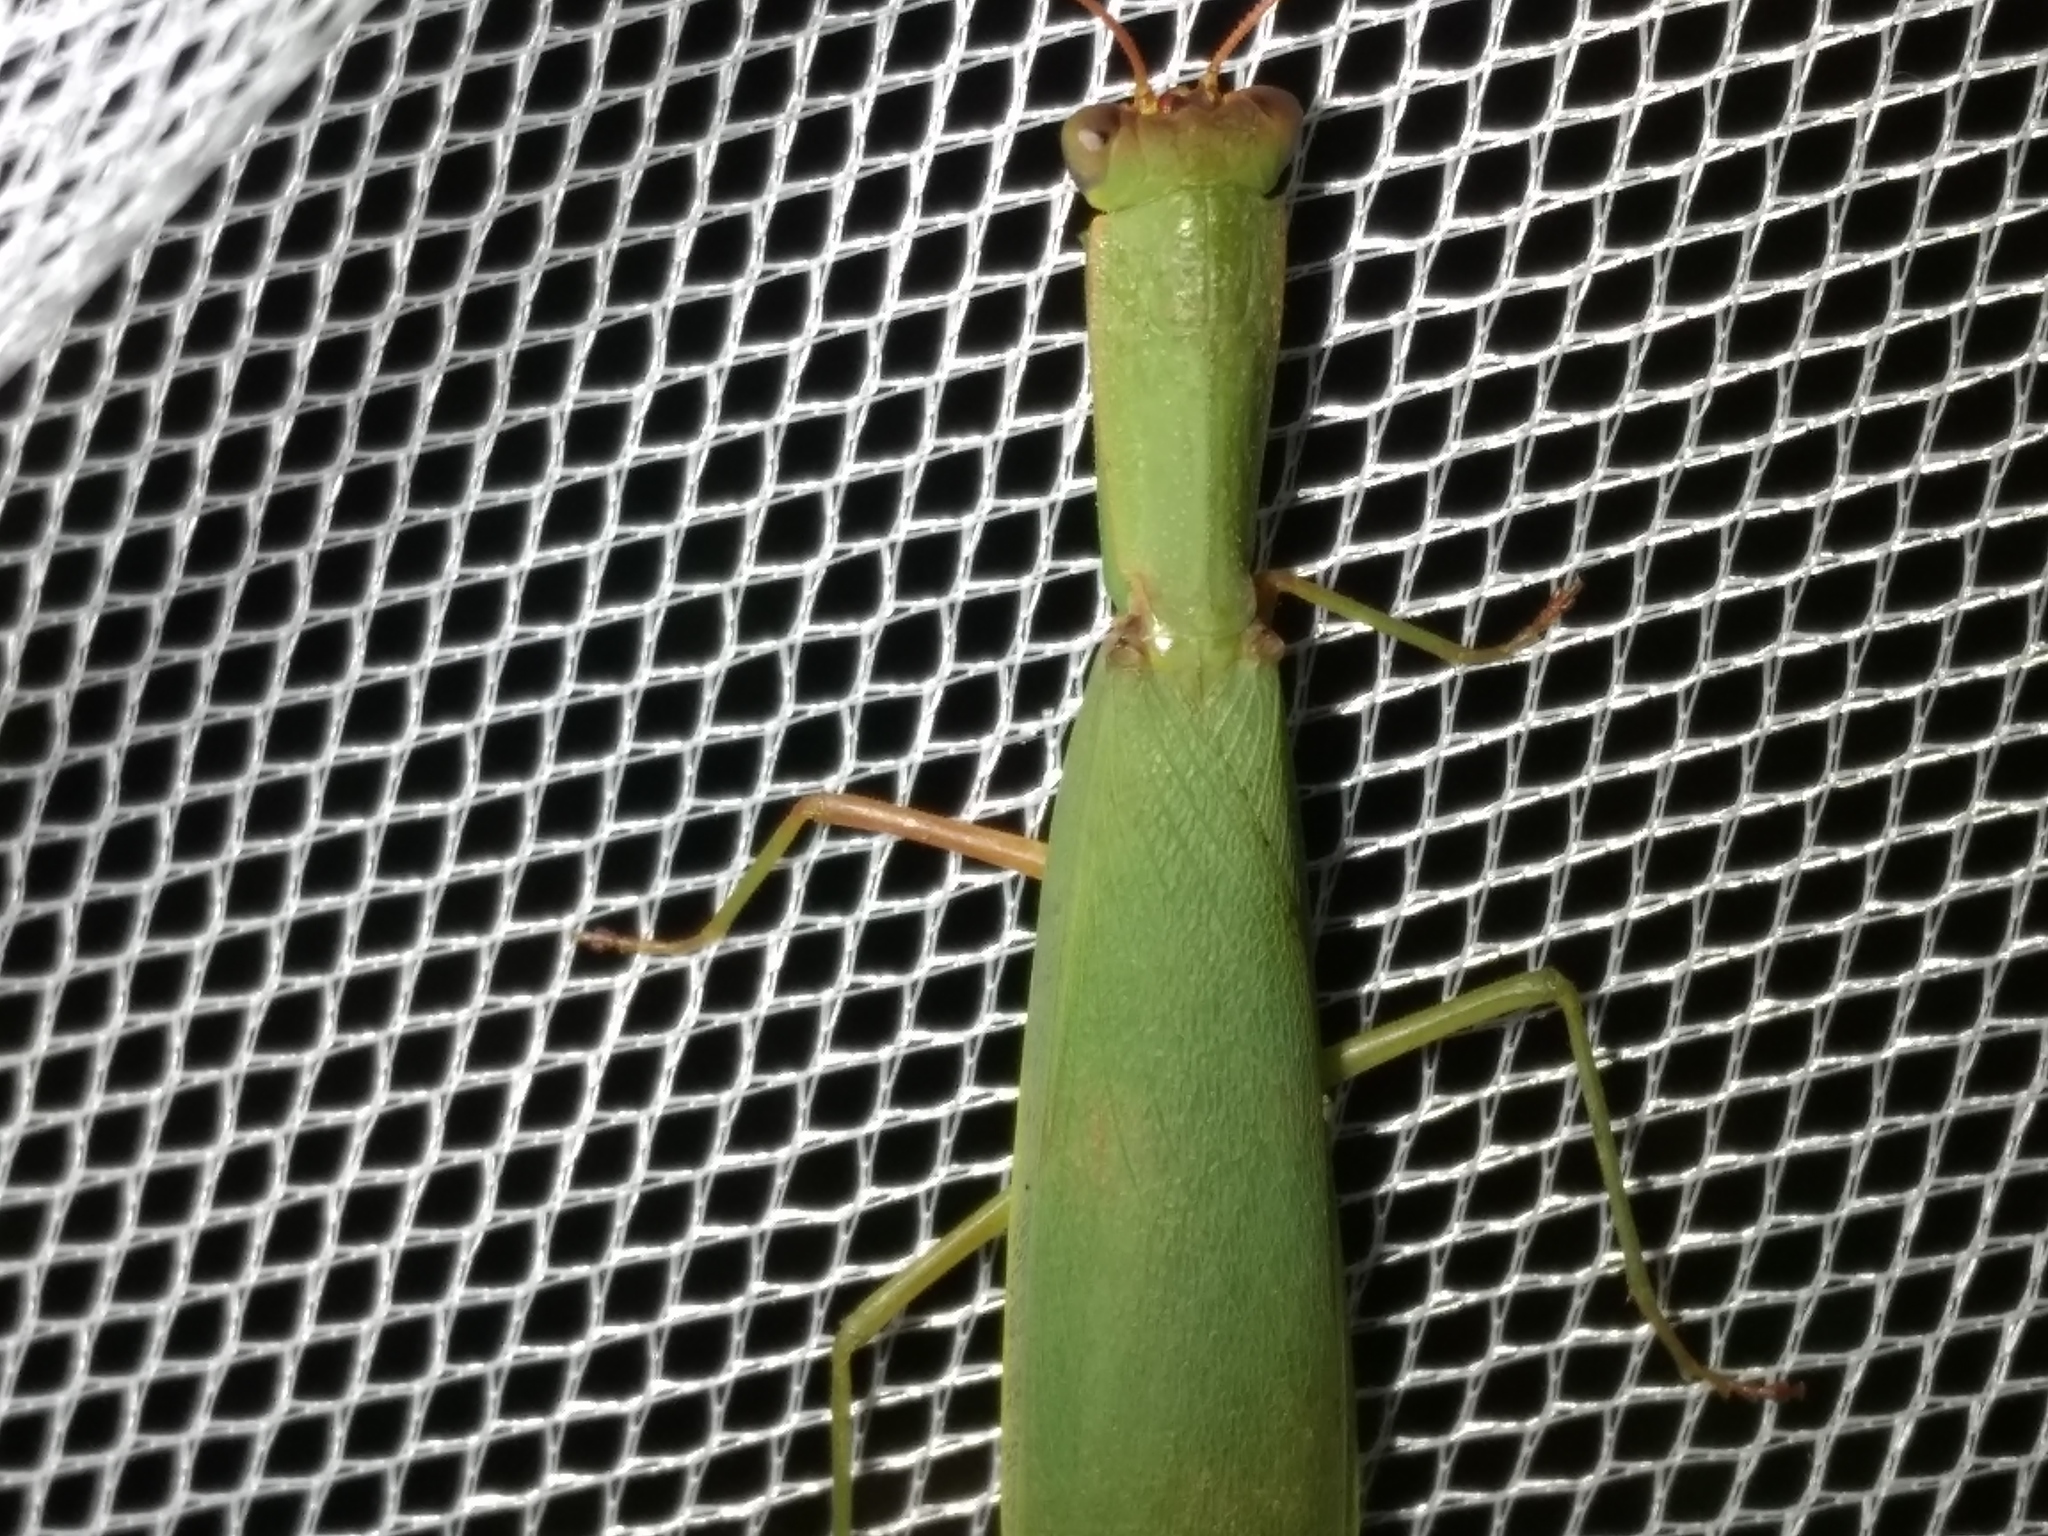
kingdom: Animalia
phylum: Arthropoda
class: Insecta
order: Mantodea
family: Mantidae
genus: Orthodera
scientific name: Orthodera ministralis
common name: Mantis
